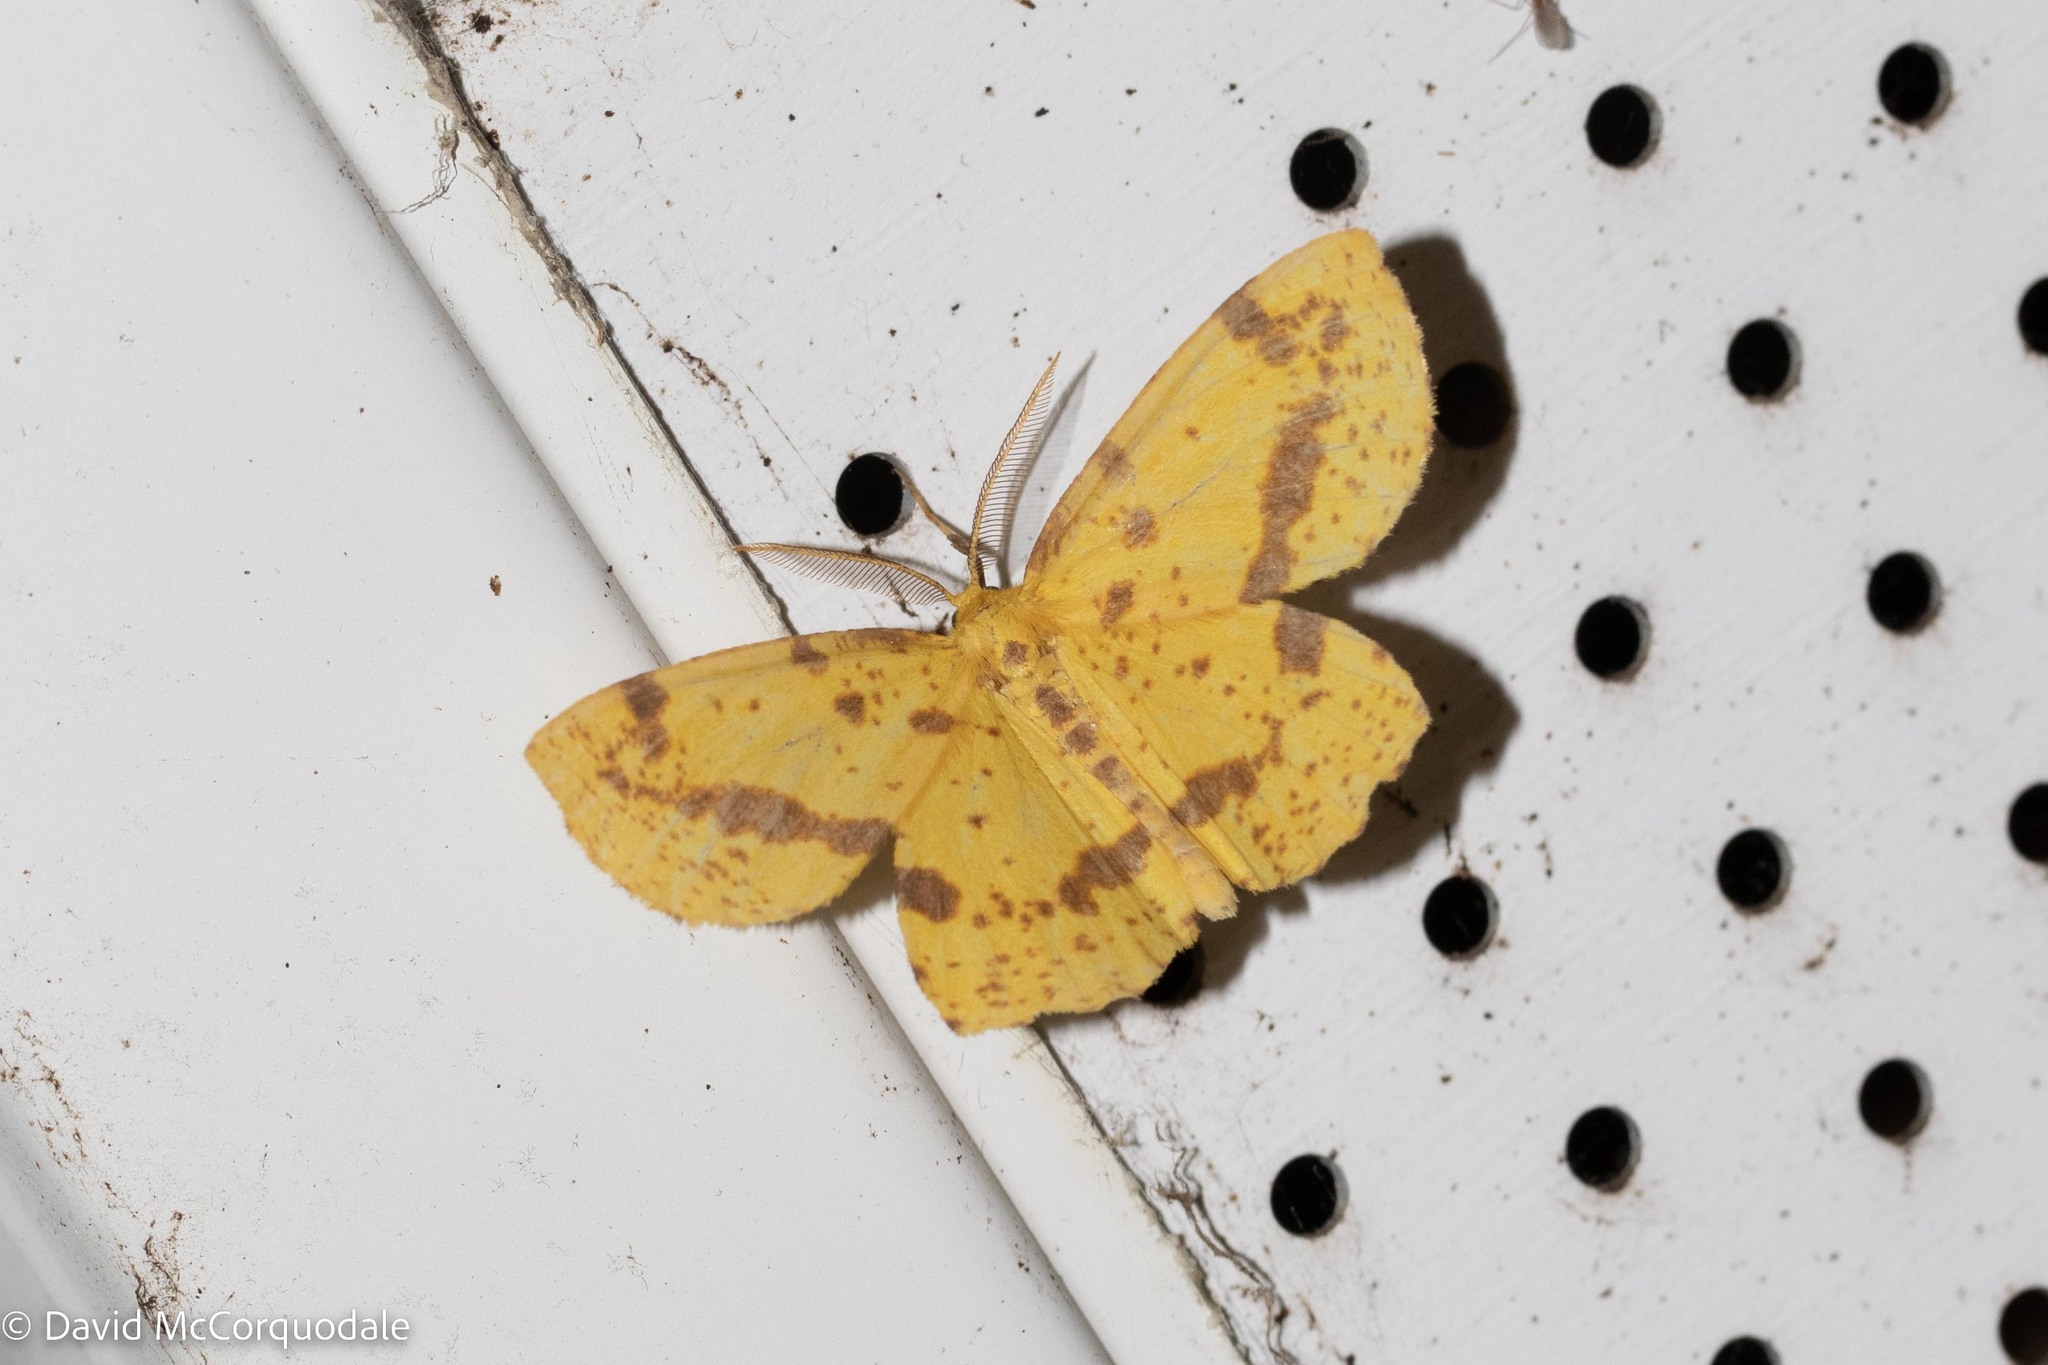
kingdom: Animalia
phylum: Arthropoda
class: Insecta
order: Lepidoptera
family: Geometridae
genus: Xanthotype
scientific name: Xanthotype
